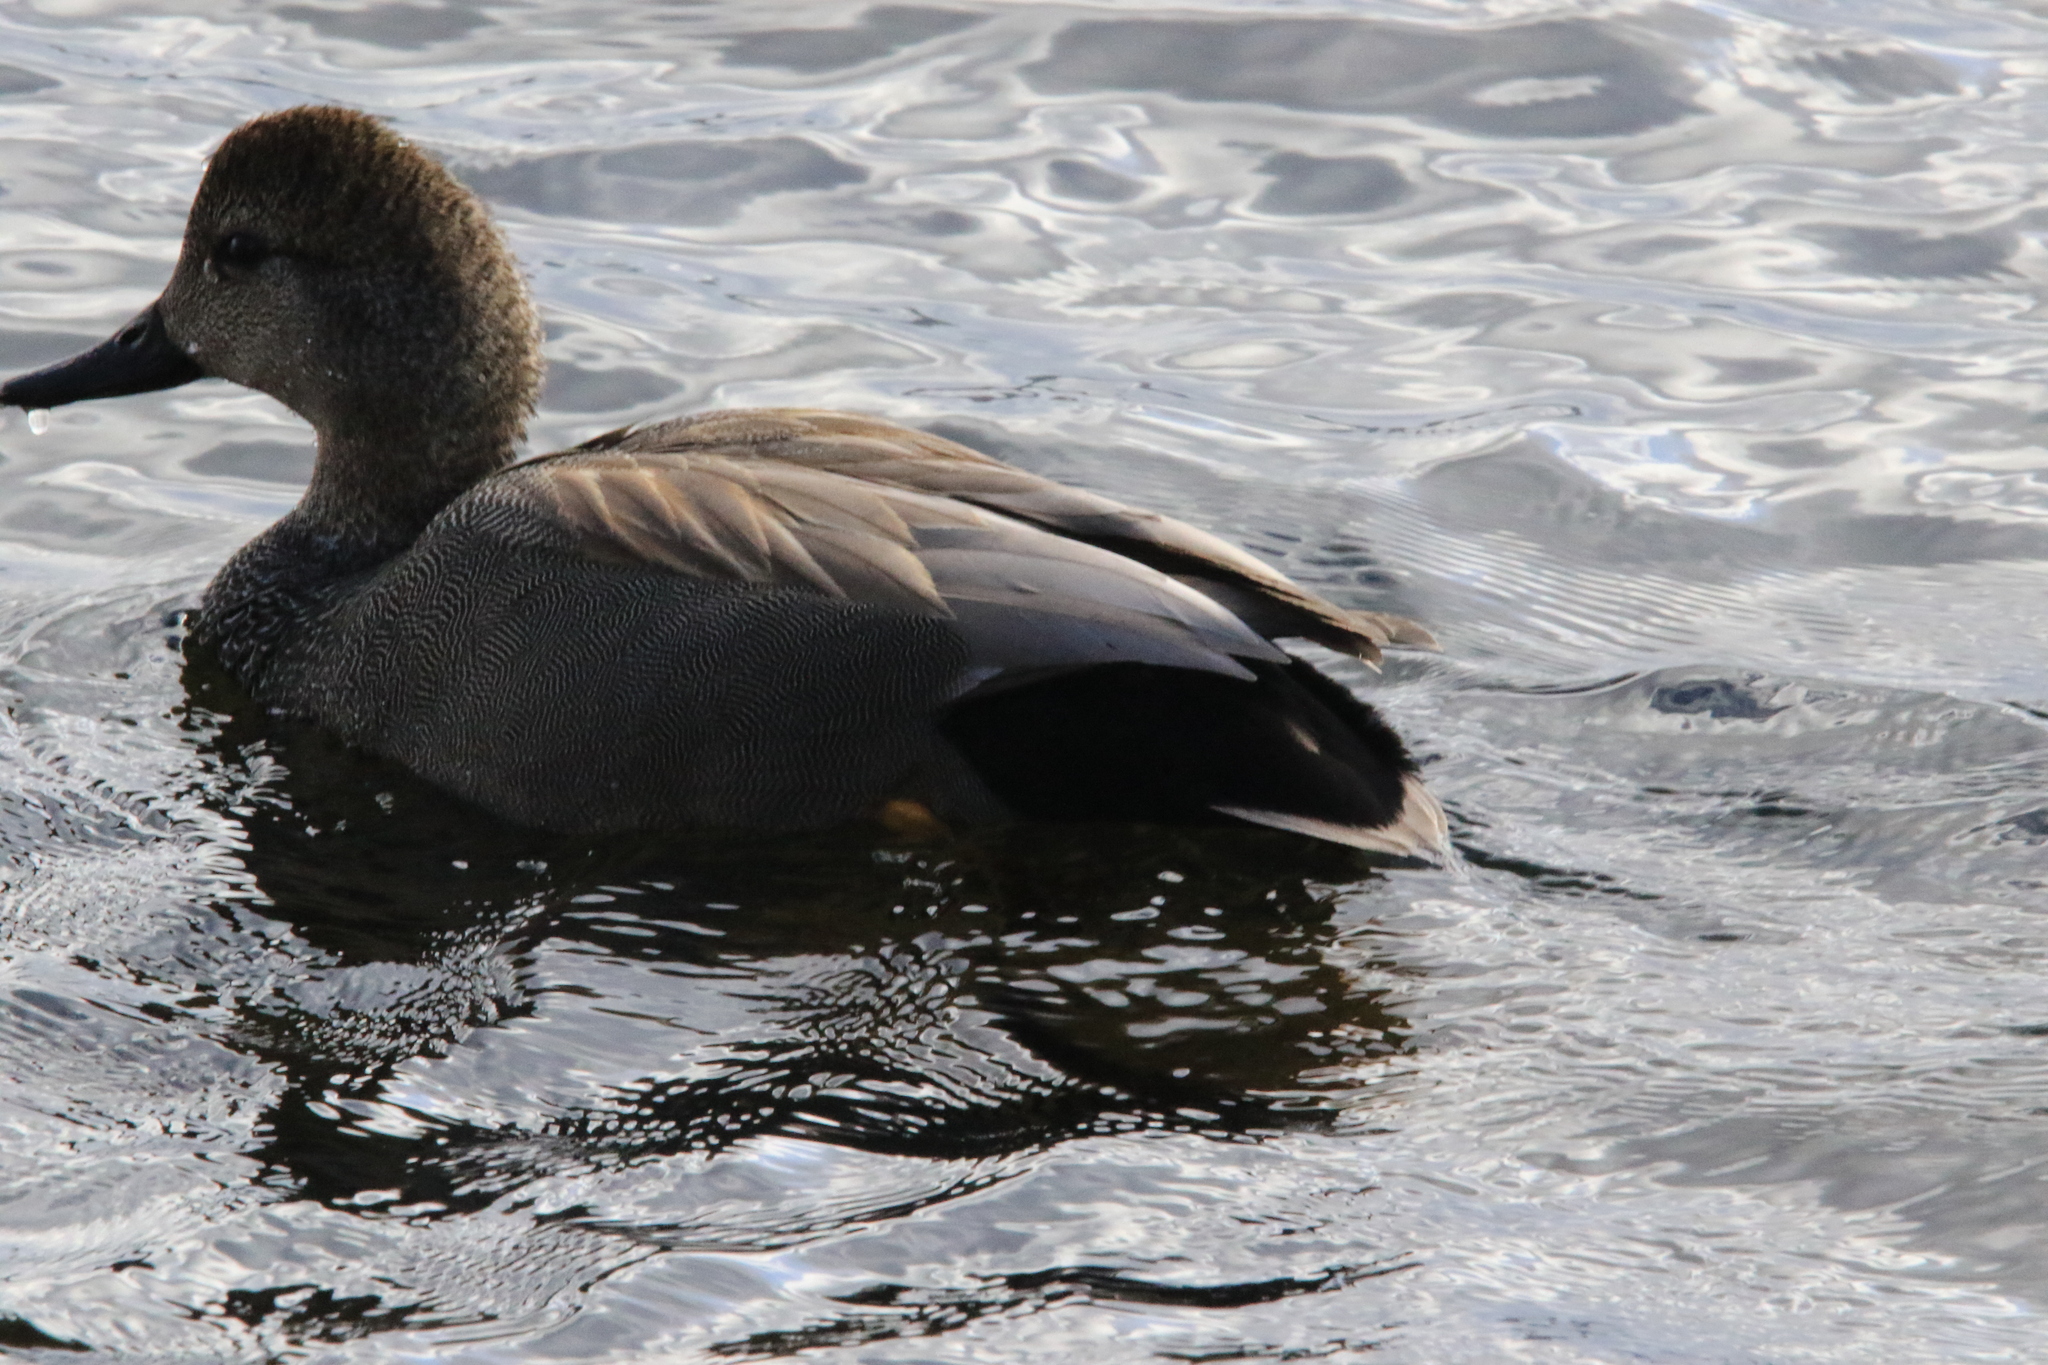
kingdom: Animalia
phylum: Chordata
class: Aves
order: Anseriformes
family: Anatidae
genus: Mareca
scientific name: Mareca strepera
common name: Gadwall
